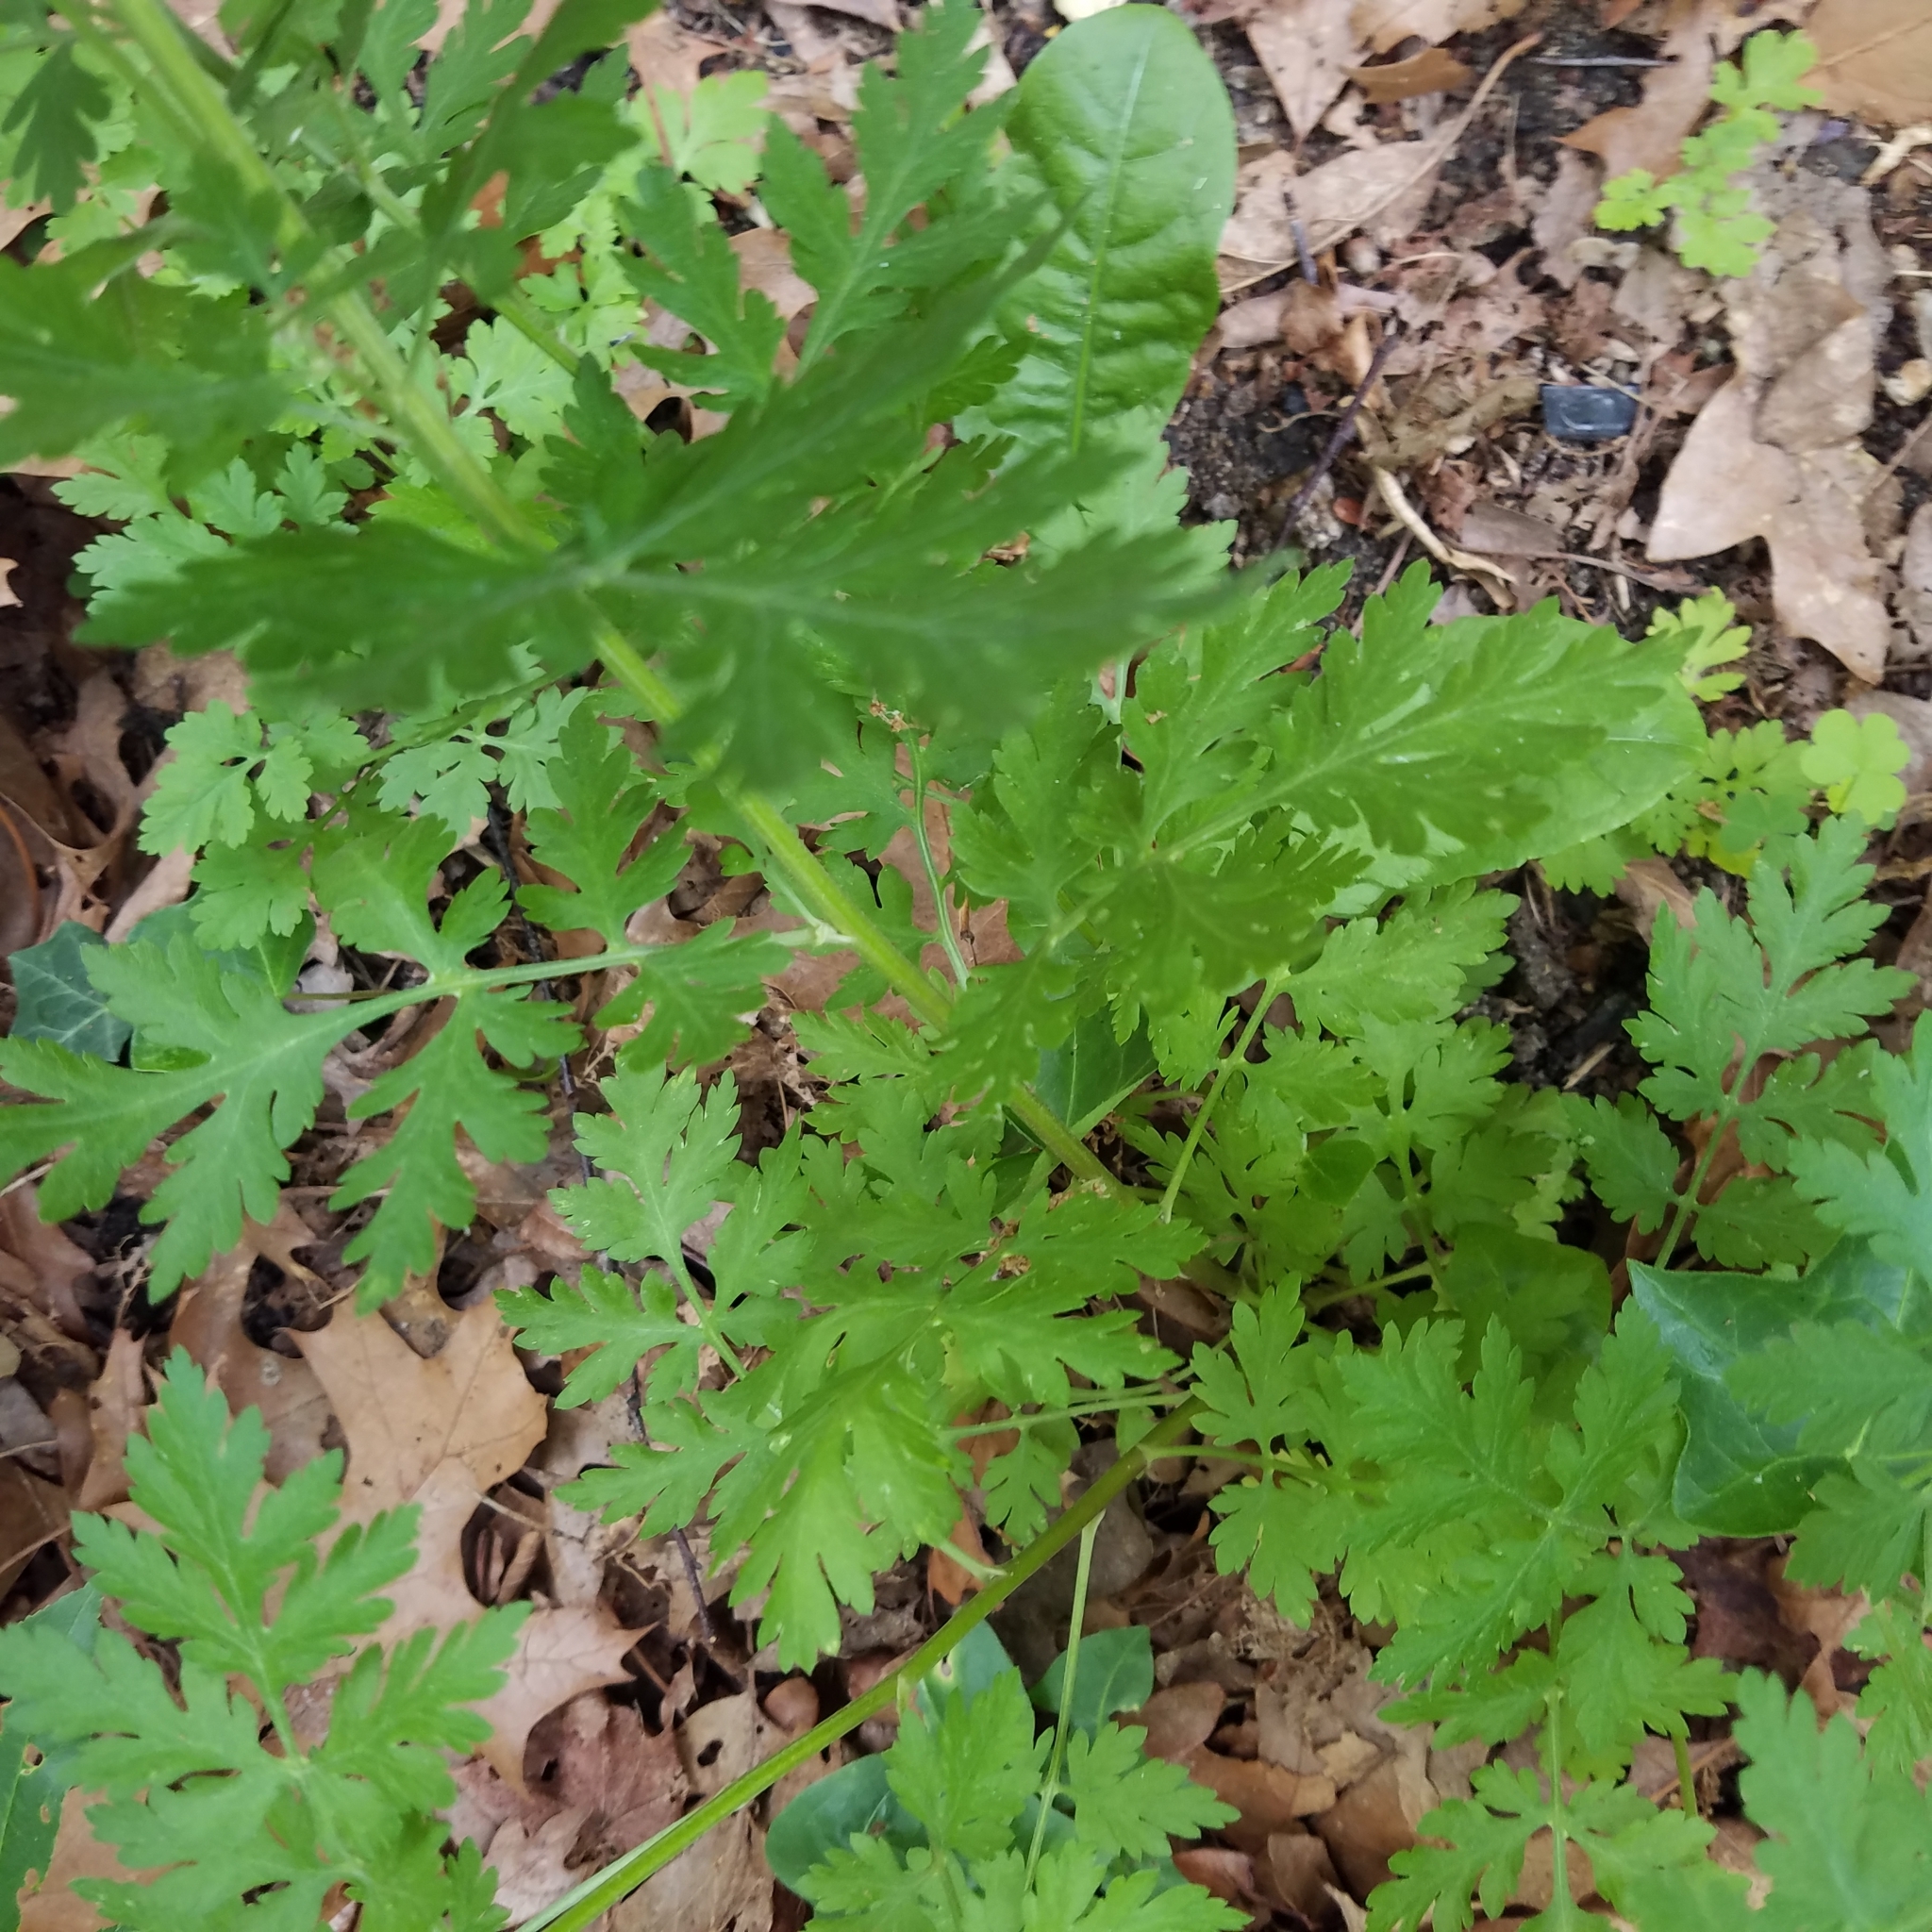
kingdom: Plantae
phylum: Tracheophyta
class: Magnoliopsida
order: Asterales
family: Asteraceae
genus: Tanacetum
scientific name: Tanacetum parthenium
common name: Feverfew
